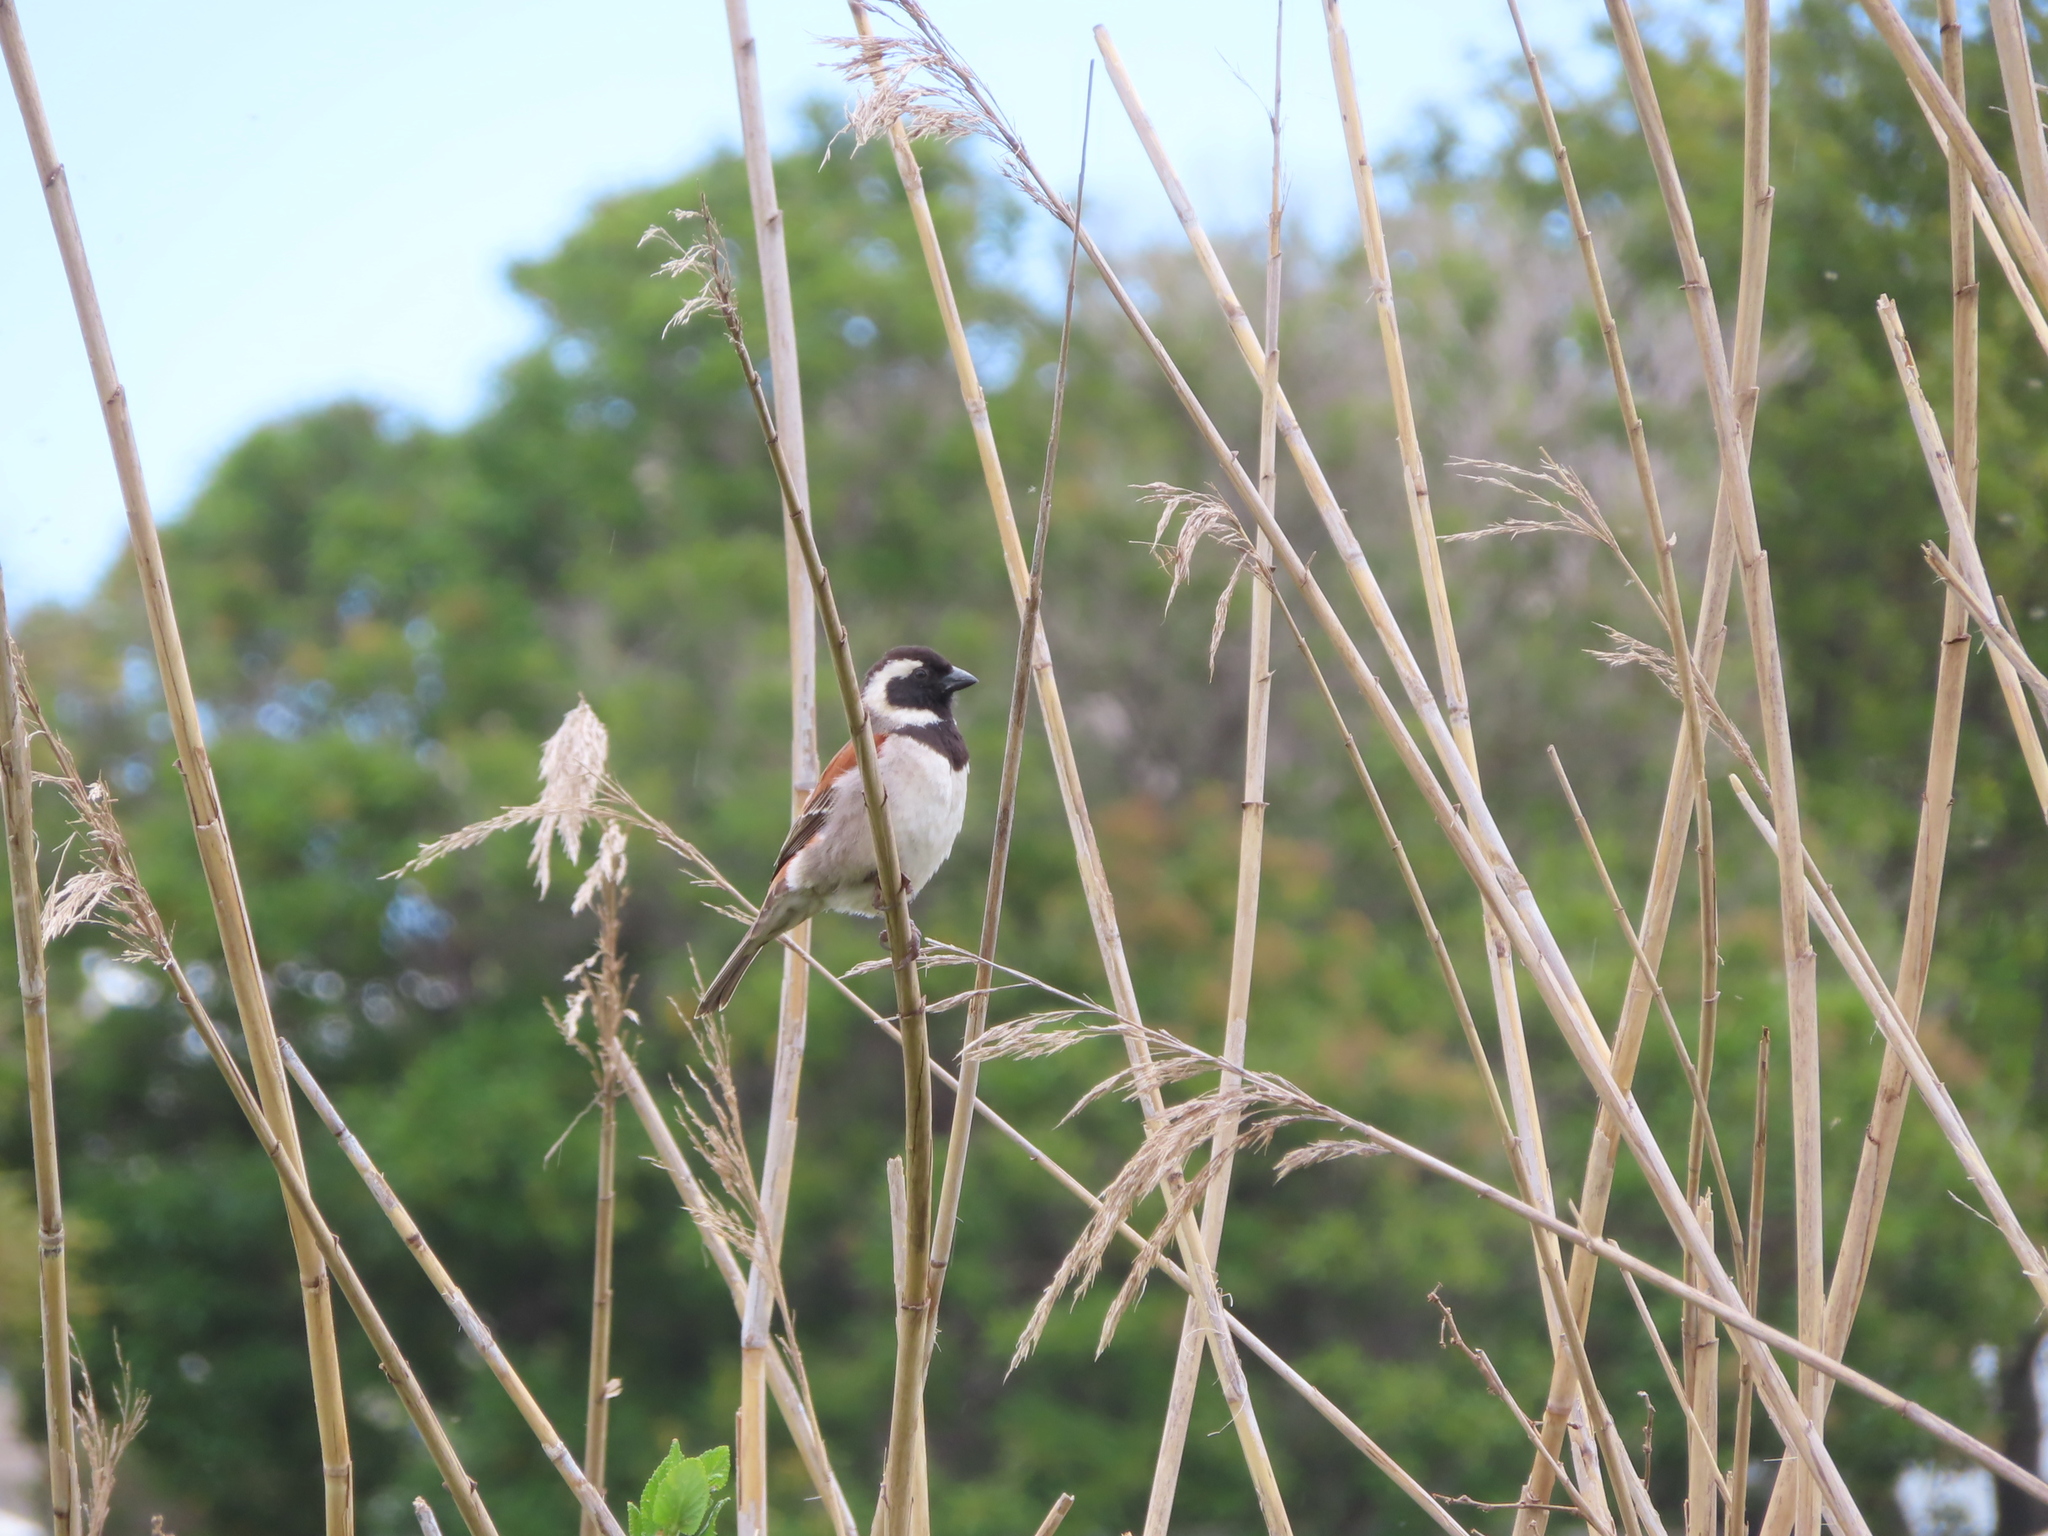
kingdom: Animalia
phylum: Chordata
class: Aves
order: Passeriformes
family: Passeridae
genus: Passer
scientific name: Passer melanurus
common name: Cape sparrow
